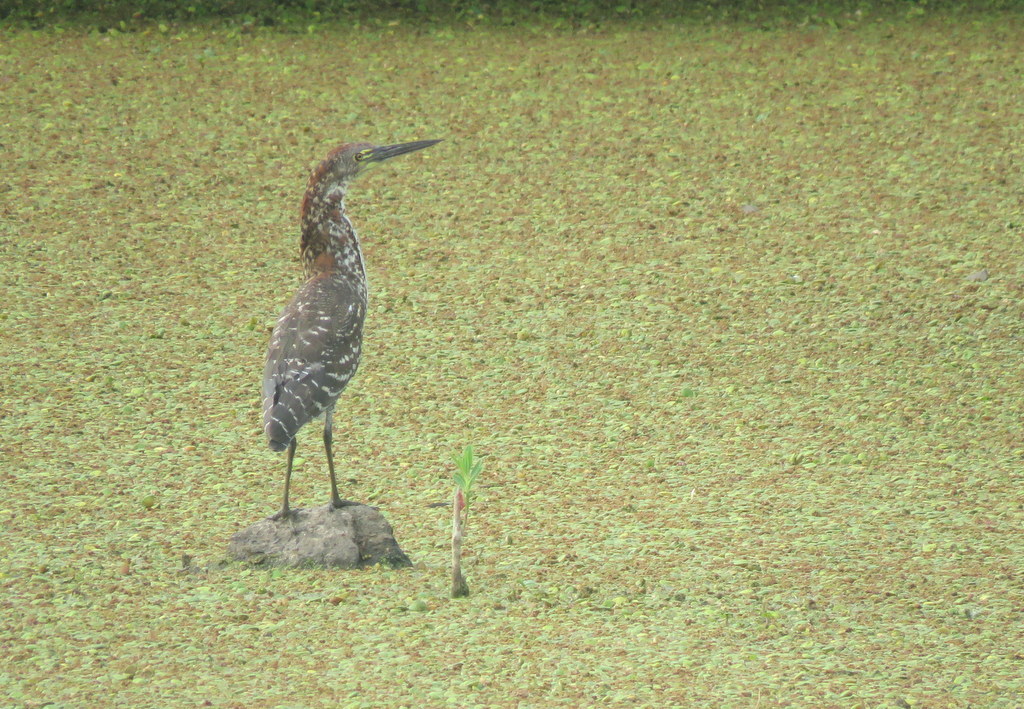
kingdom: Animalia
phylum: Chordata
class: Aves
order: Pelecaniformes
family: Ardeidae
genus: Tigrisoma
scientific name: Tigrisoma lineatum
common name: Rufescent tiger-heron
